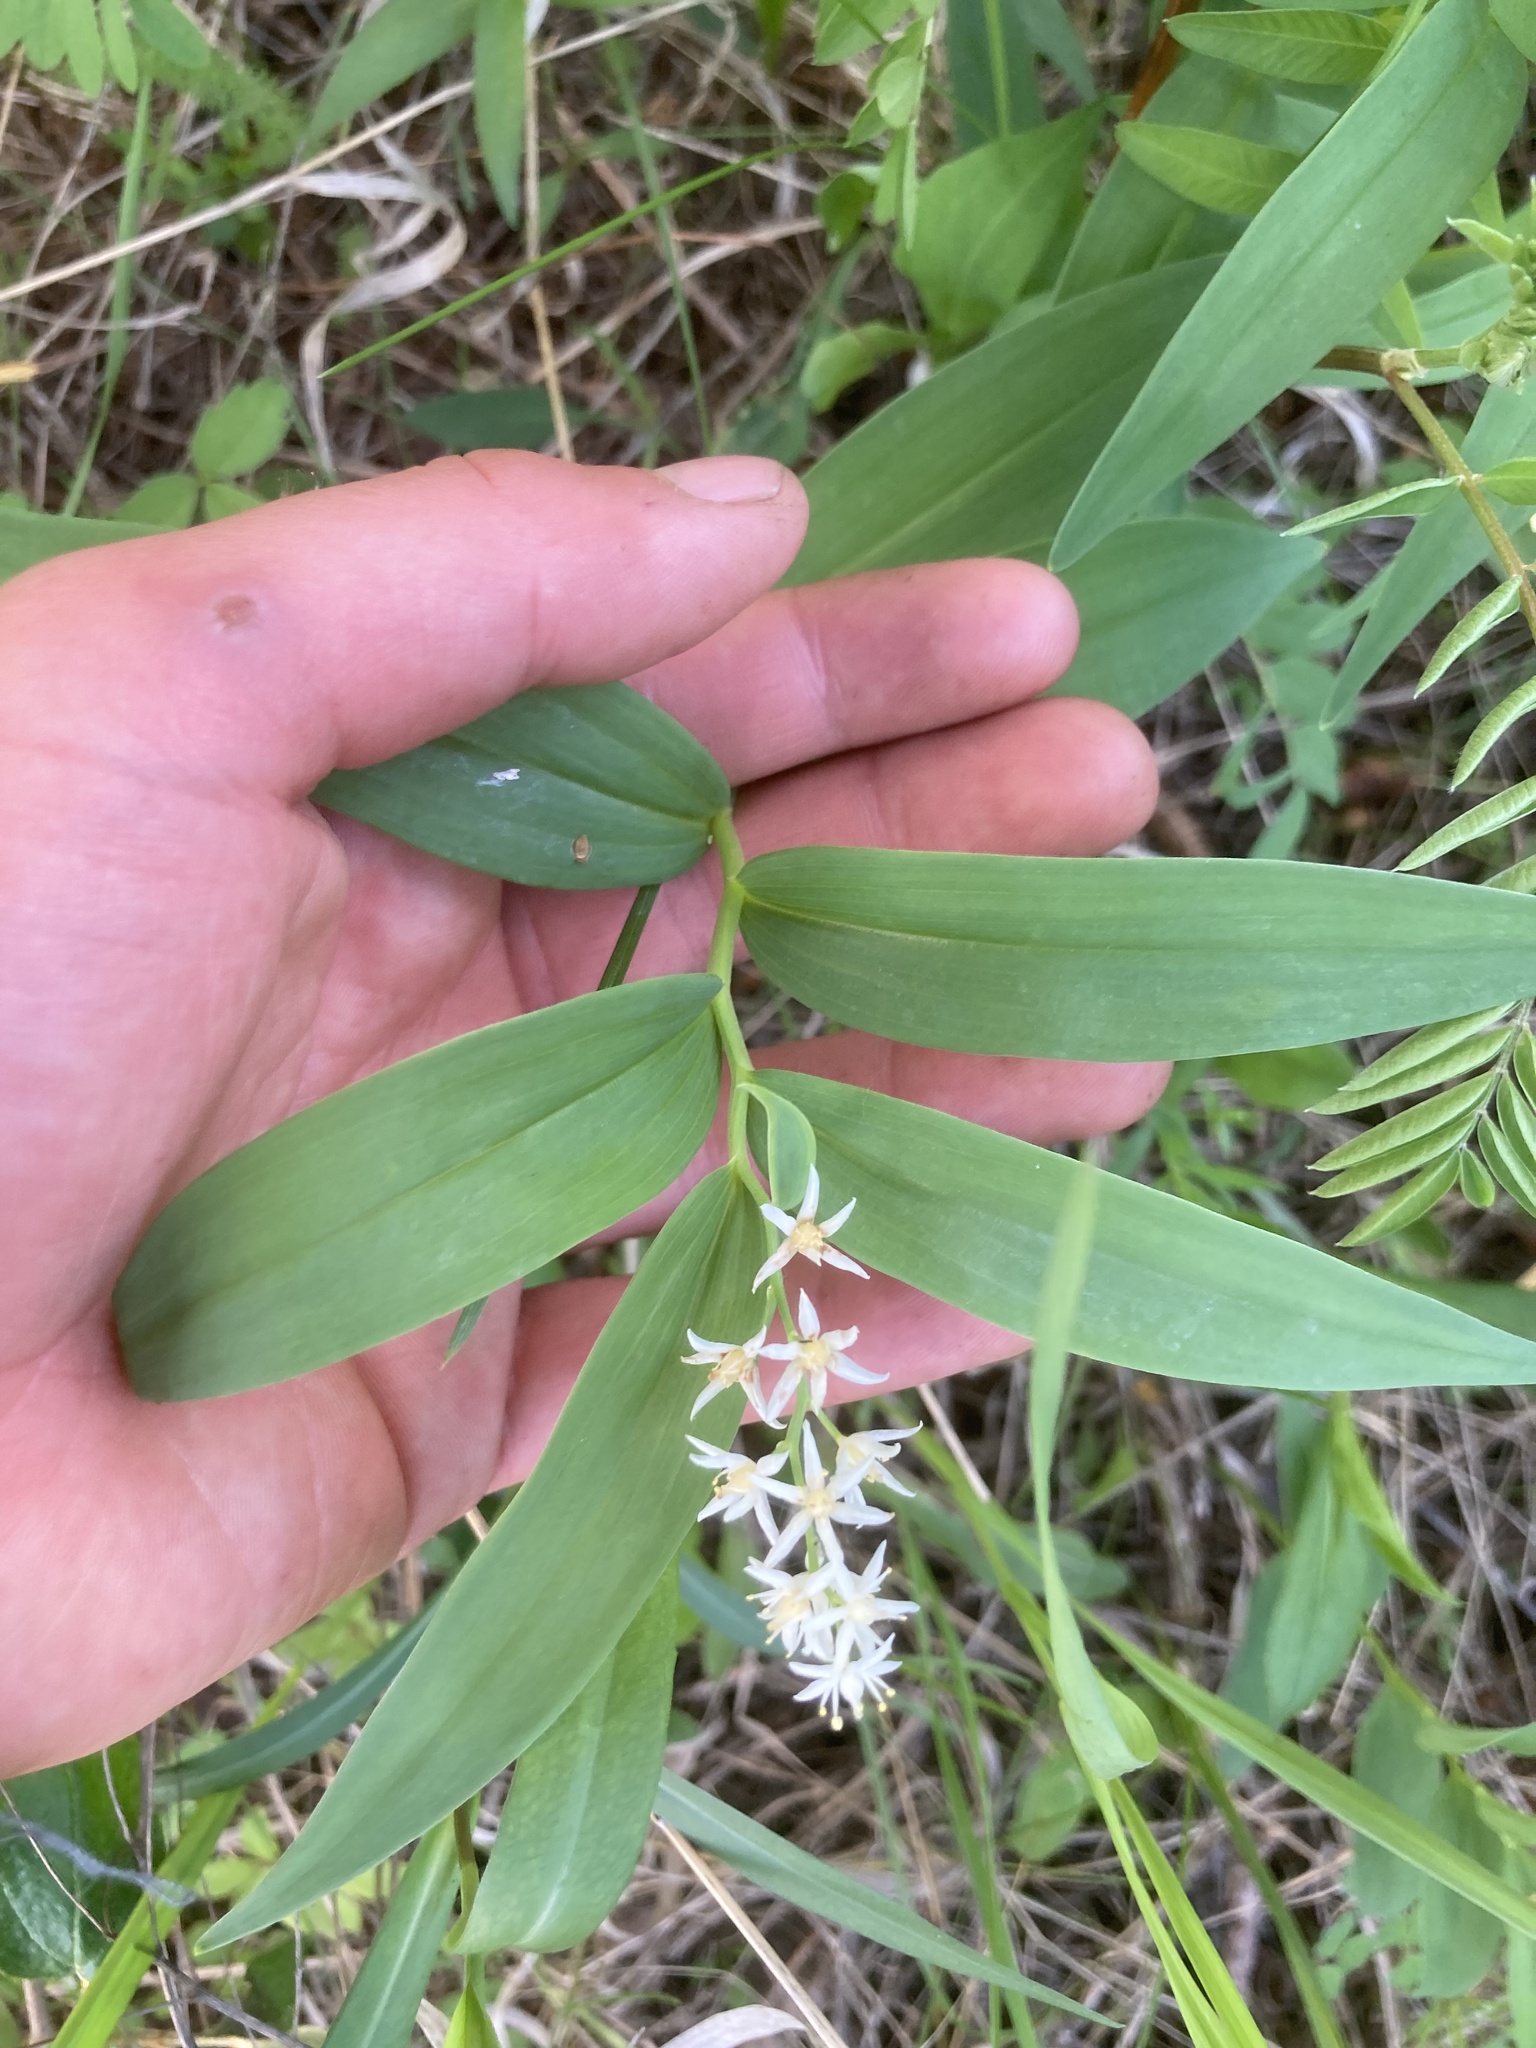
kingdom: Plantae
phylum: Tracheophyta
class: Liliopsida
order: Asparagales
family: Asparagaceae
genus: Maianthemum
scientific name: Maianthemum stellatum
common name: Little false solomon's seal
